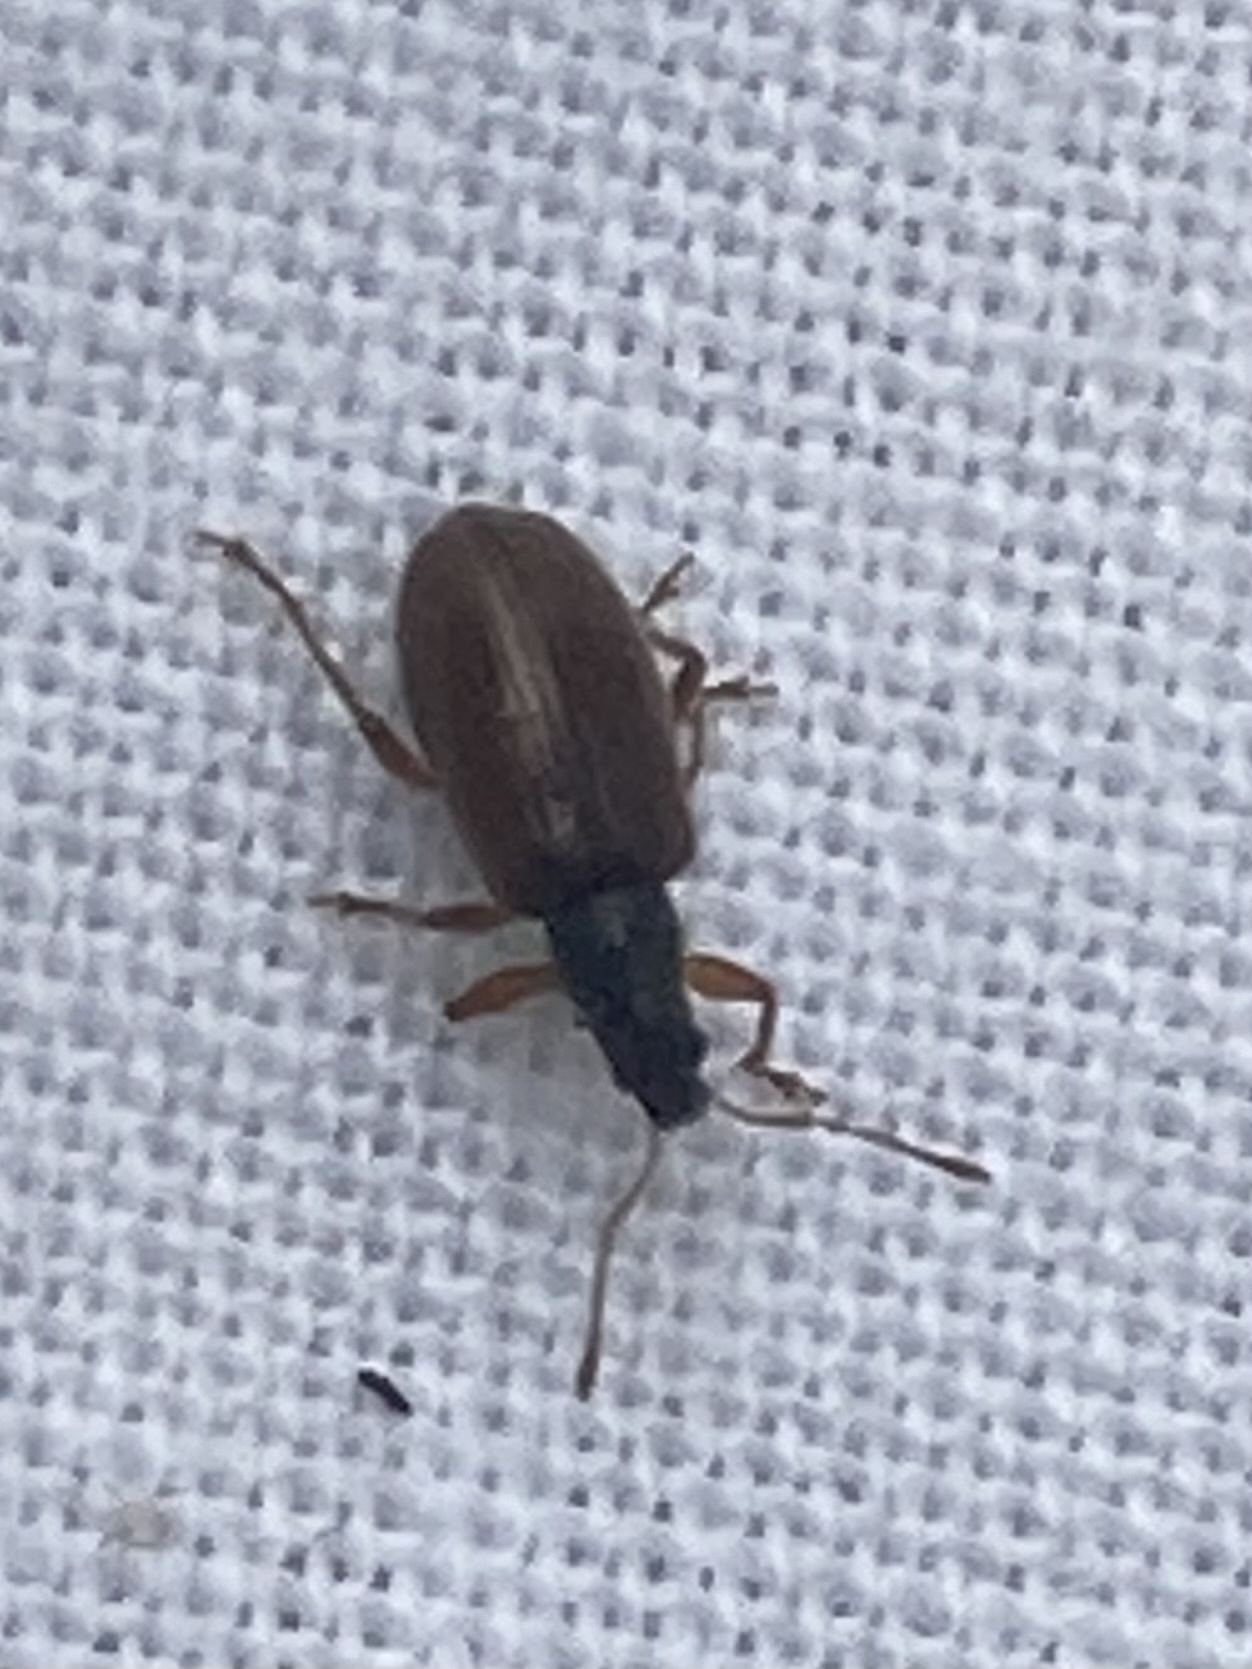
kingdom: Animalia
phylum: Arthropoda
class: Insecta
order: Coleoptera
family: Curculionidae
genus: Phyllobius
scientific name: Phyllobius oblongus
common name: Brown leaf weevil
